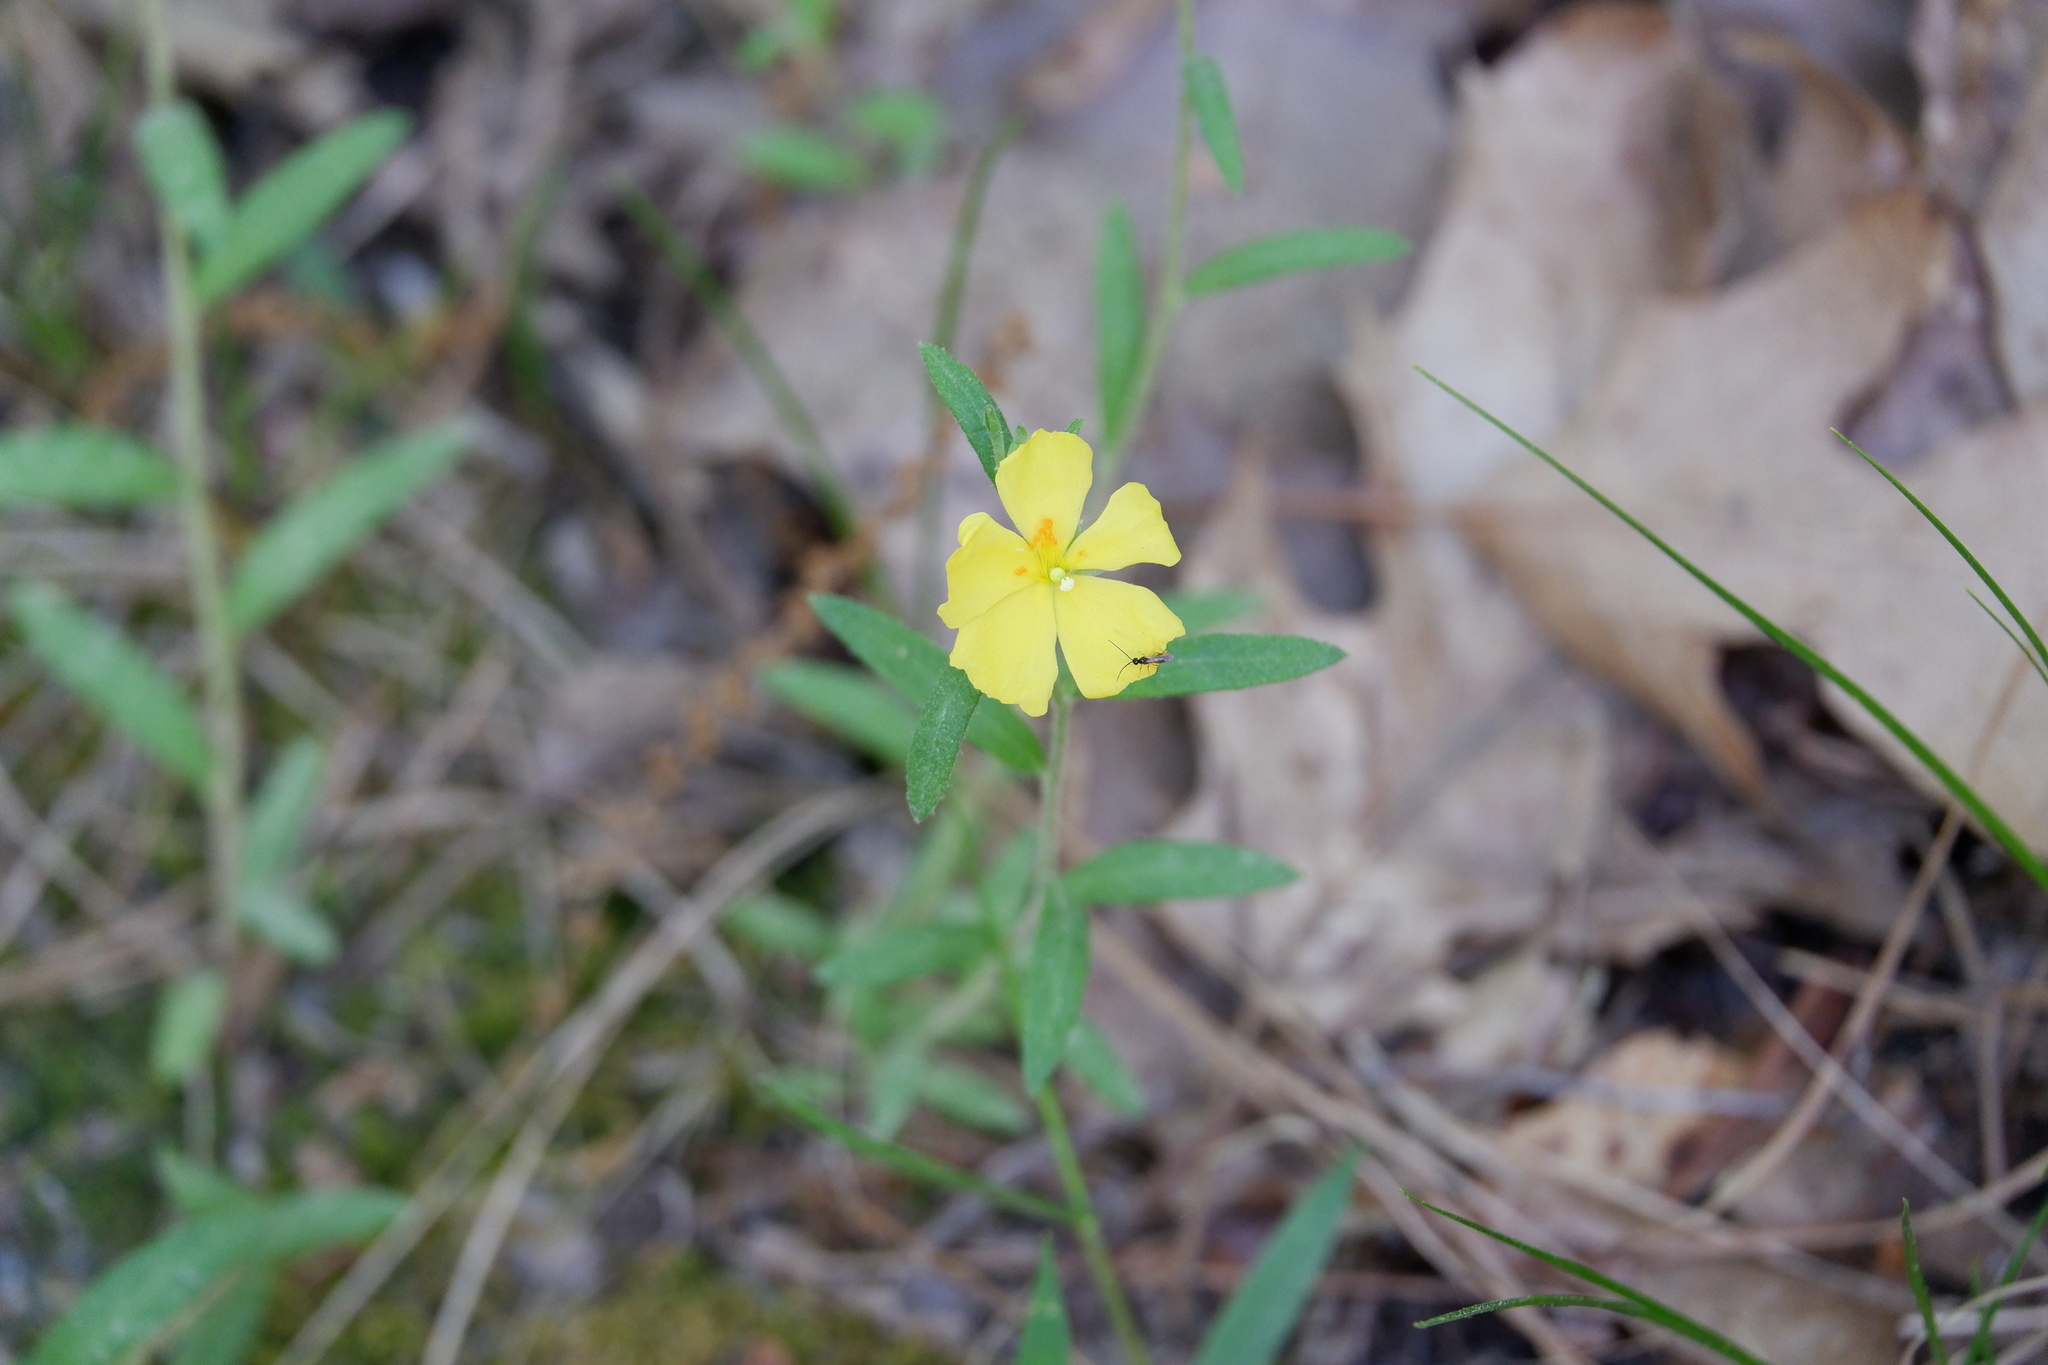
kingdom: Plantae
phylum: Tracheophyta
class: Magnoliopsida
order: Malvales
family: Cistaceae
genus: Crocanthemum
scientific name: Crocanthemum canadense
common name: Canada frostweed
